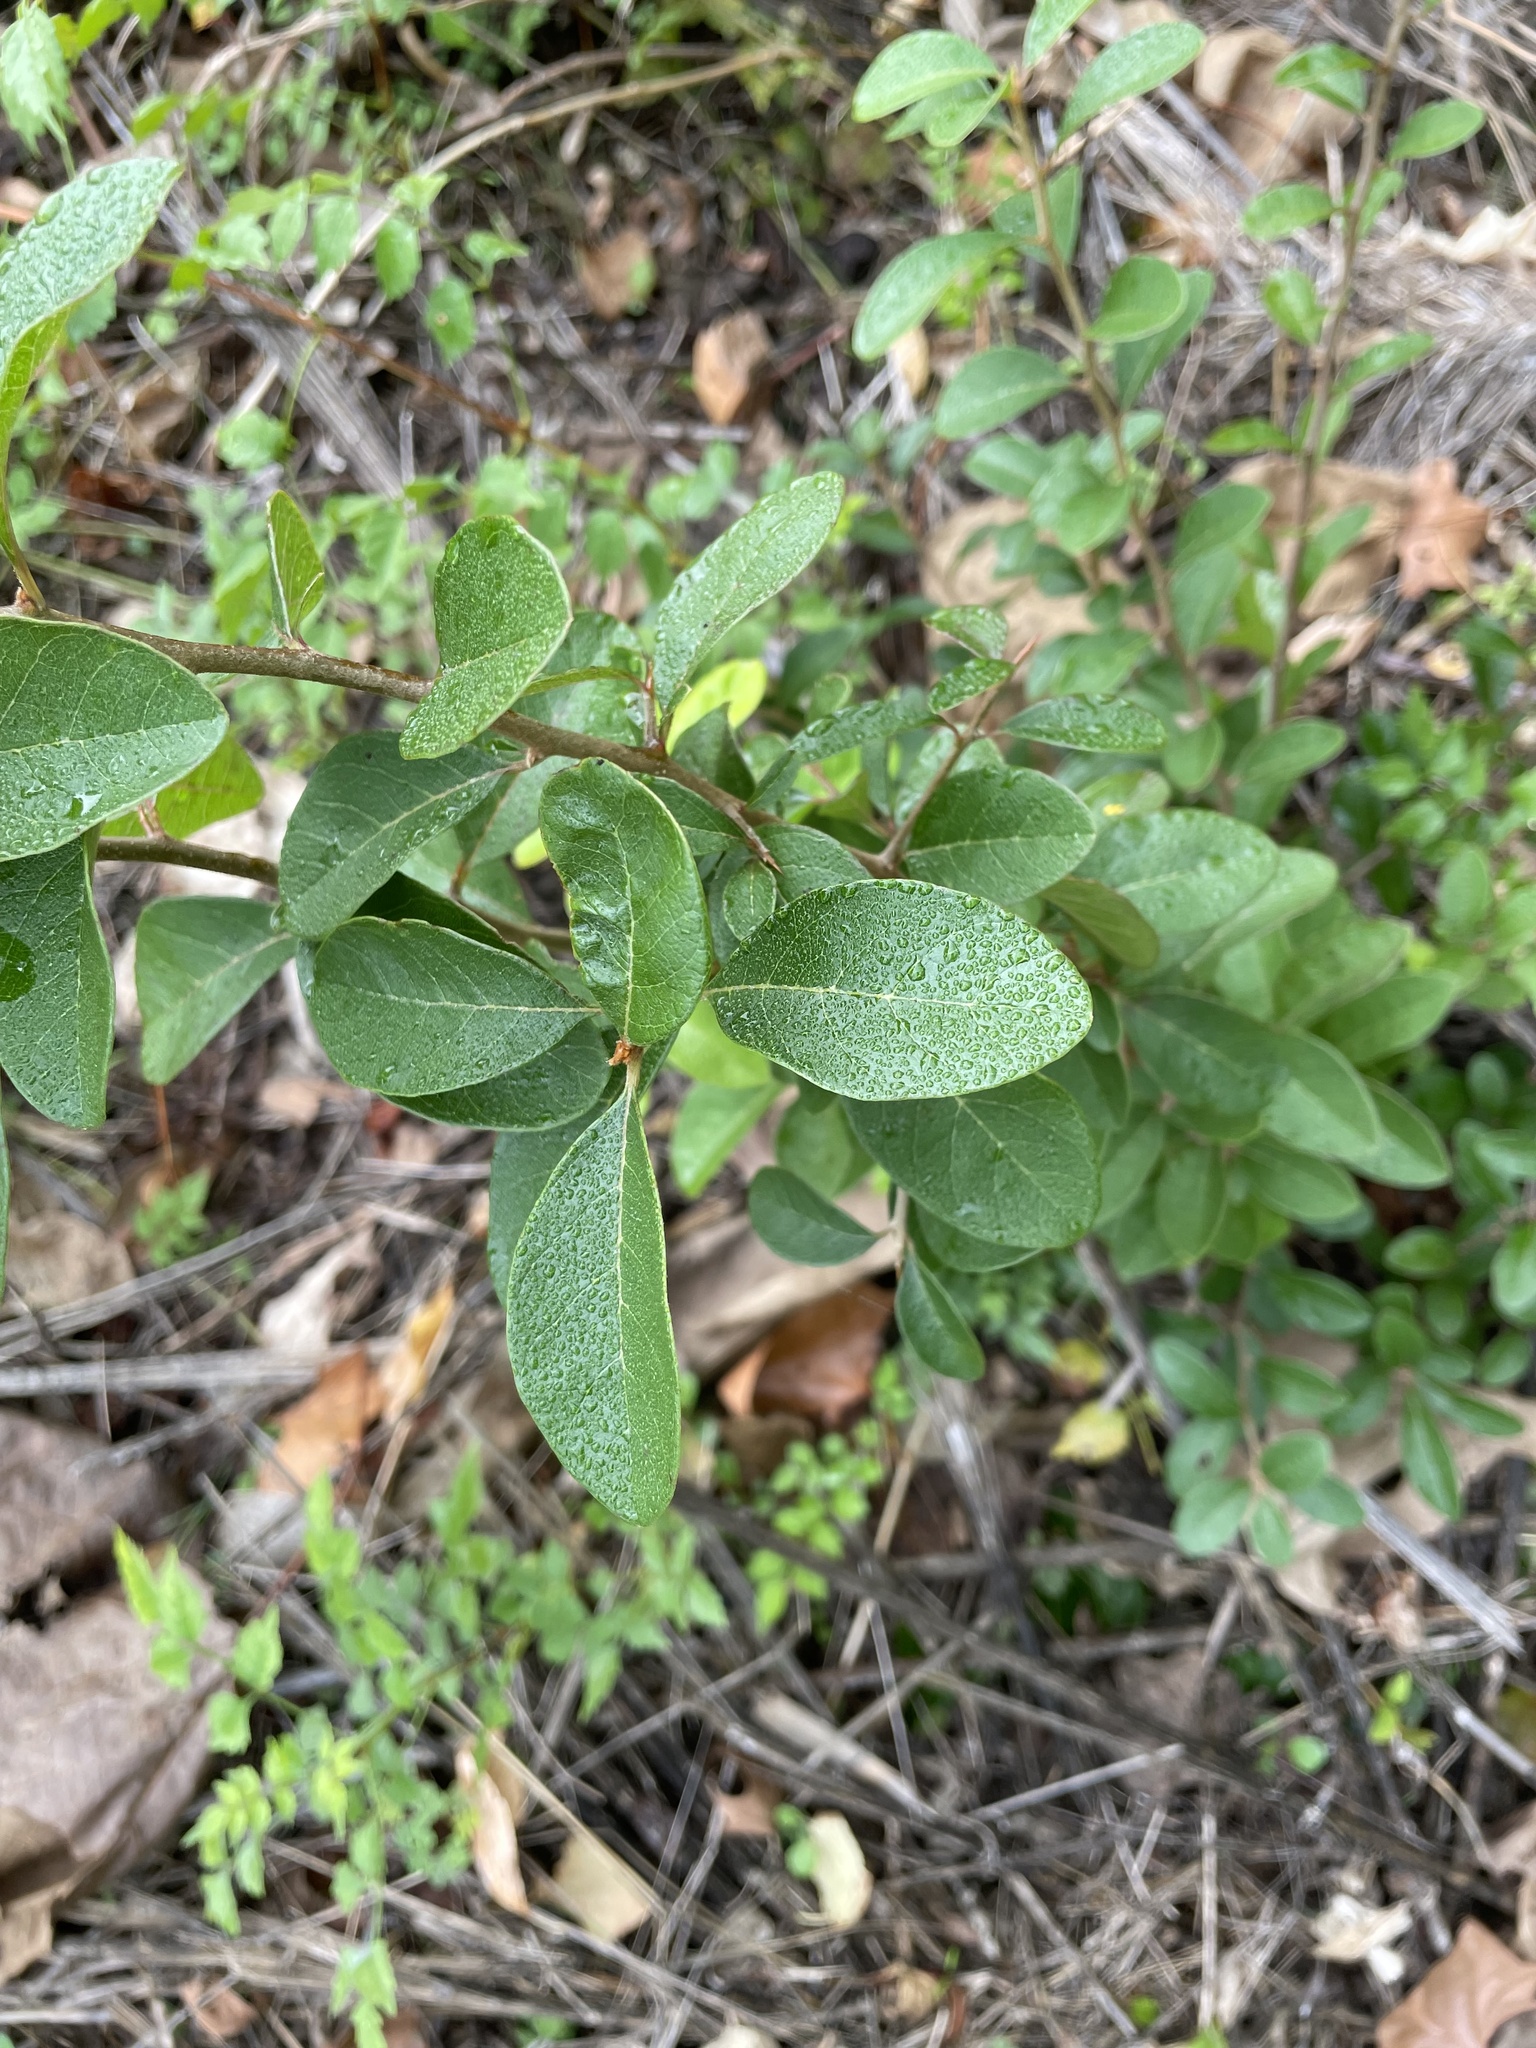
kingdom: Plantae
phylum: Tracheophyta
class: Magnoliopsida
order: Ericales
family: Sapotaceae
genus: Sideroxylon
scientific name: Sideroxylon lanuginosum
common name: Chittamwood
